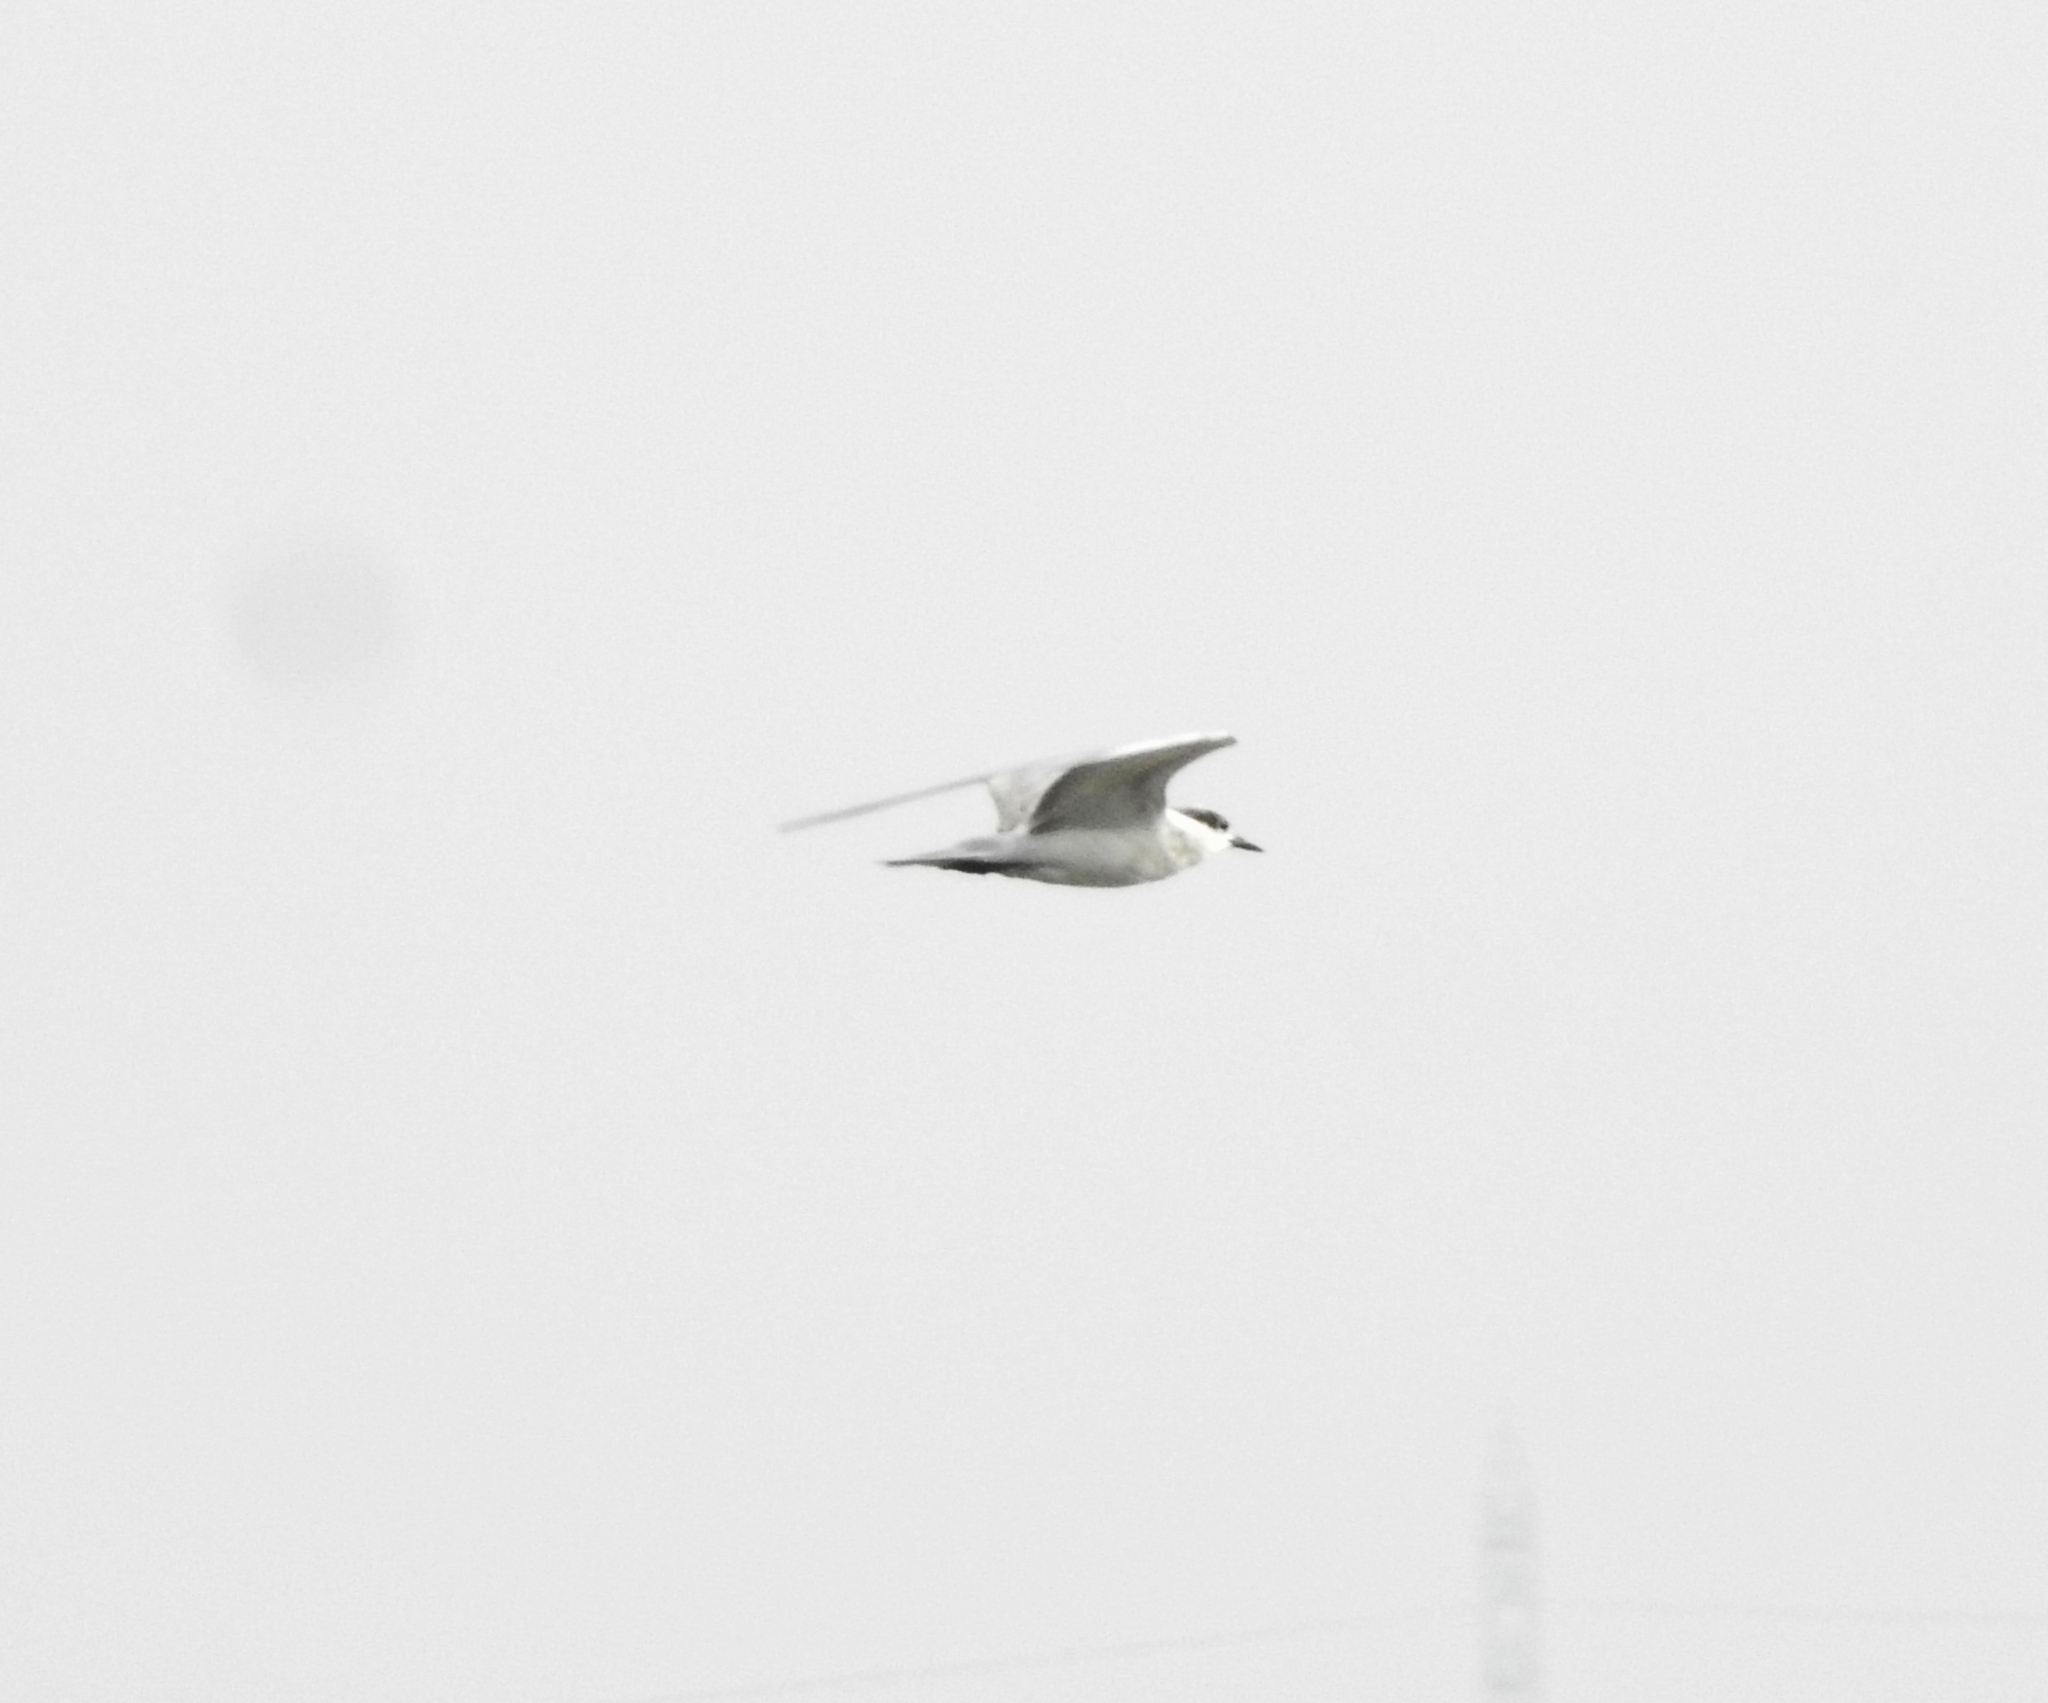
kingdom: Animalia
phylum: Chordata
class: Aves
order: Charadriiformes
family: Laridae
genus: Chlidonias
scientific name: Chlidonias hybrida
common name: Whiskered tern
